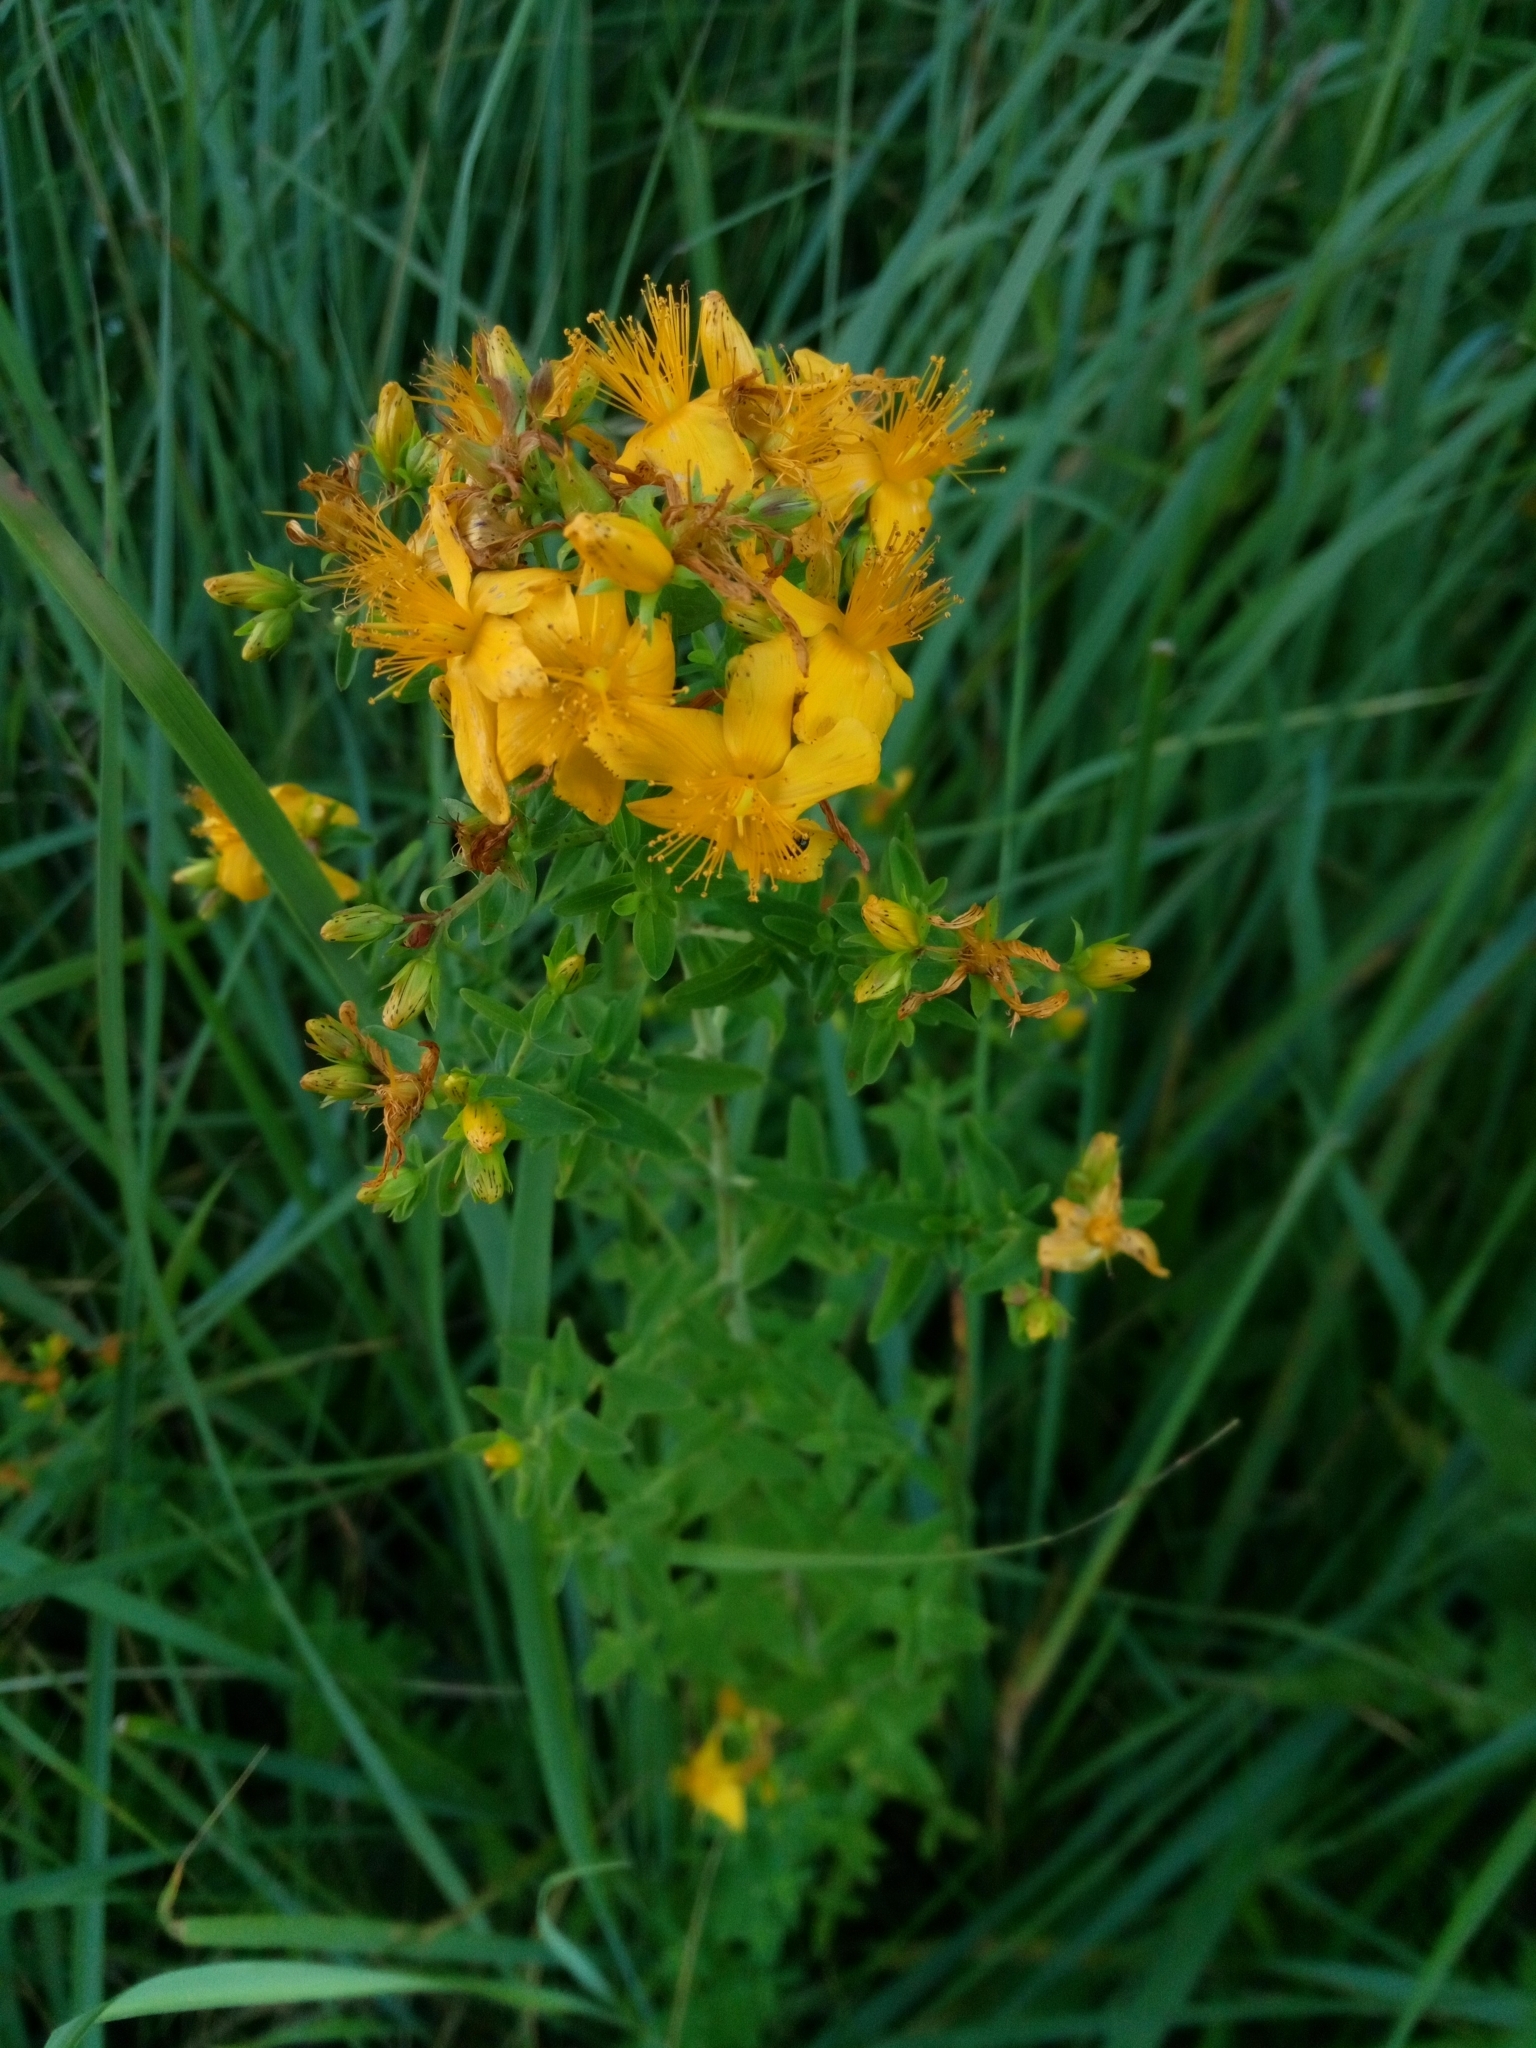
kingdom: Plantae
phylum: Tracheophyta
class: Magnoliopsida
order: Malpighiales
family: Hypericaceae
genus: Hypericum
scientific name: Hypericum perforatum
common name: Common st. johnswort
